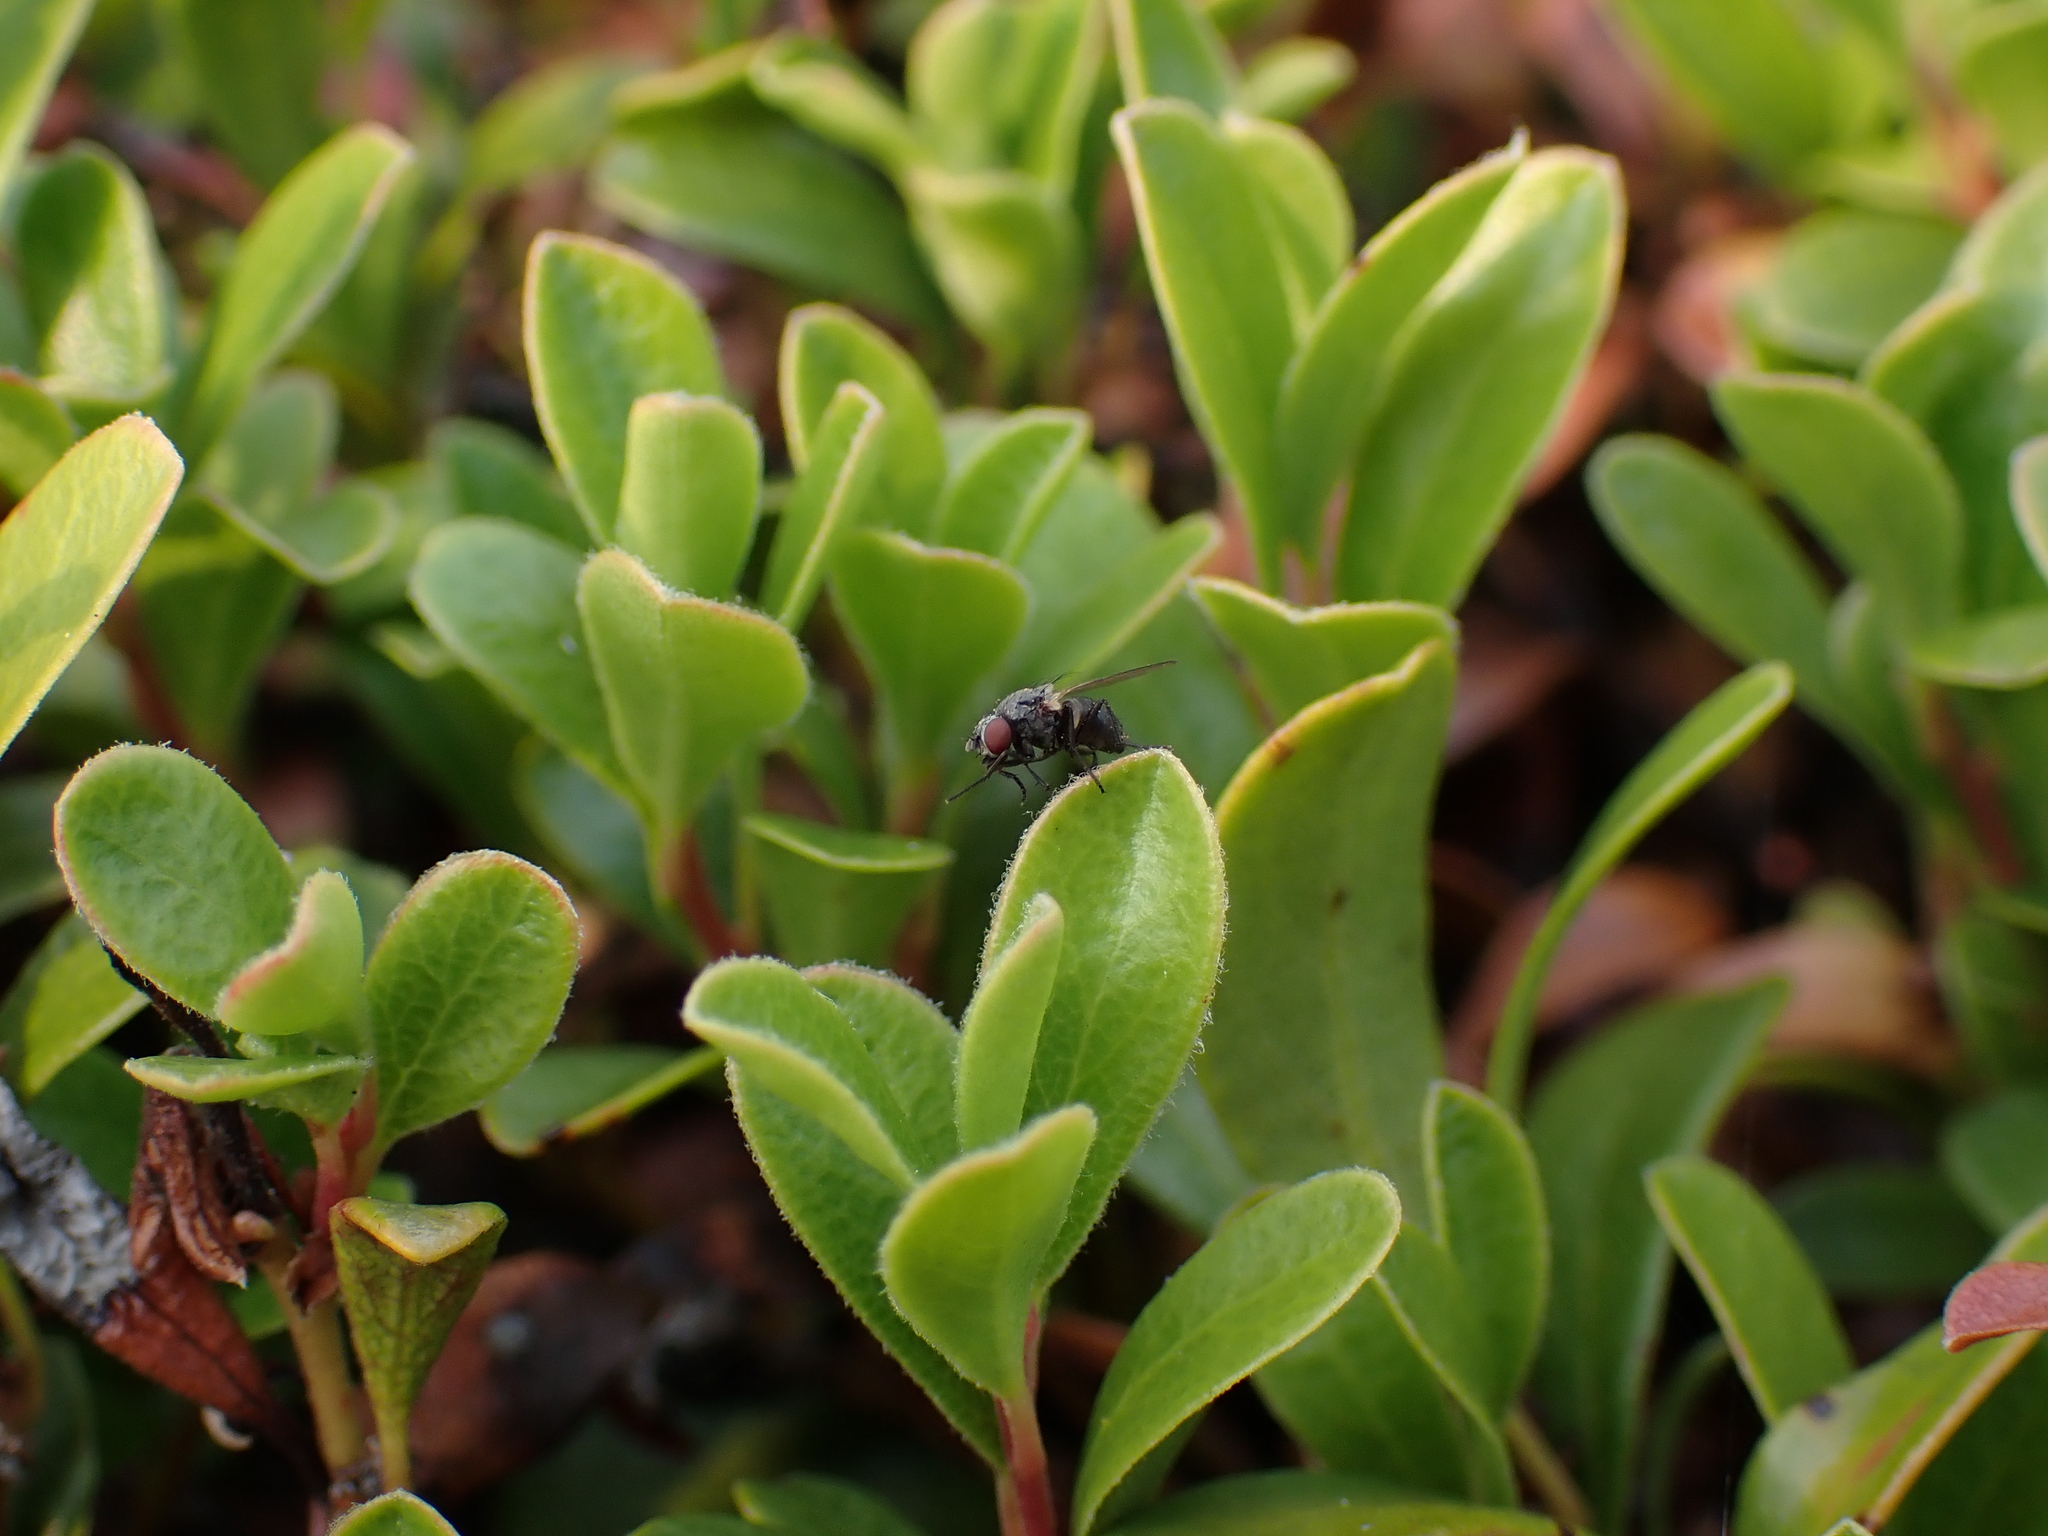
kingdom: Plantae
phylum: Tracheophyta
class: Magnoliopsida
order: Ericales
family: Ericaceae
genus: Arctostaphylos
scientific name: Arctostaphylos uva-ursi
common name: Bearberry
